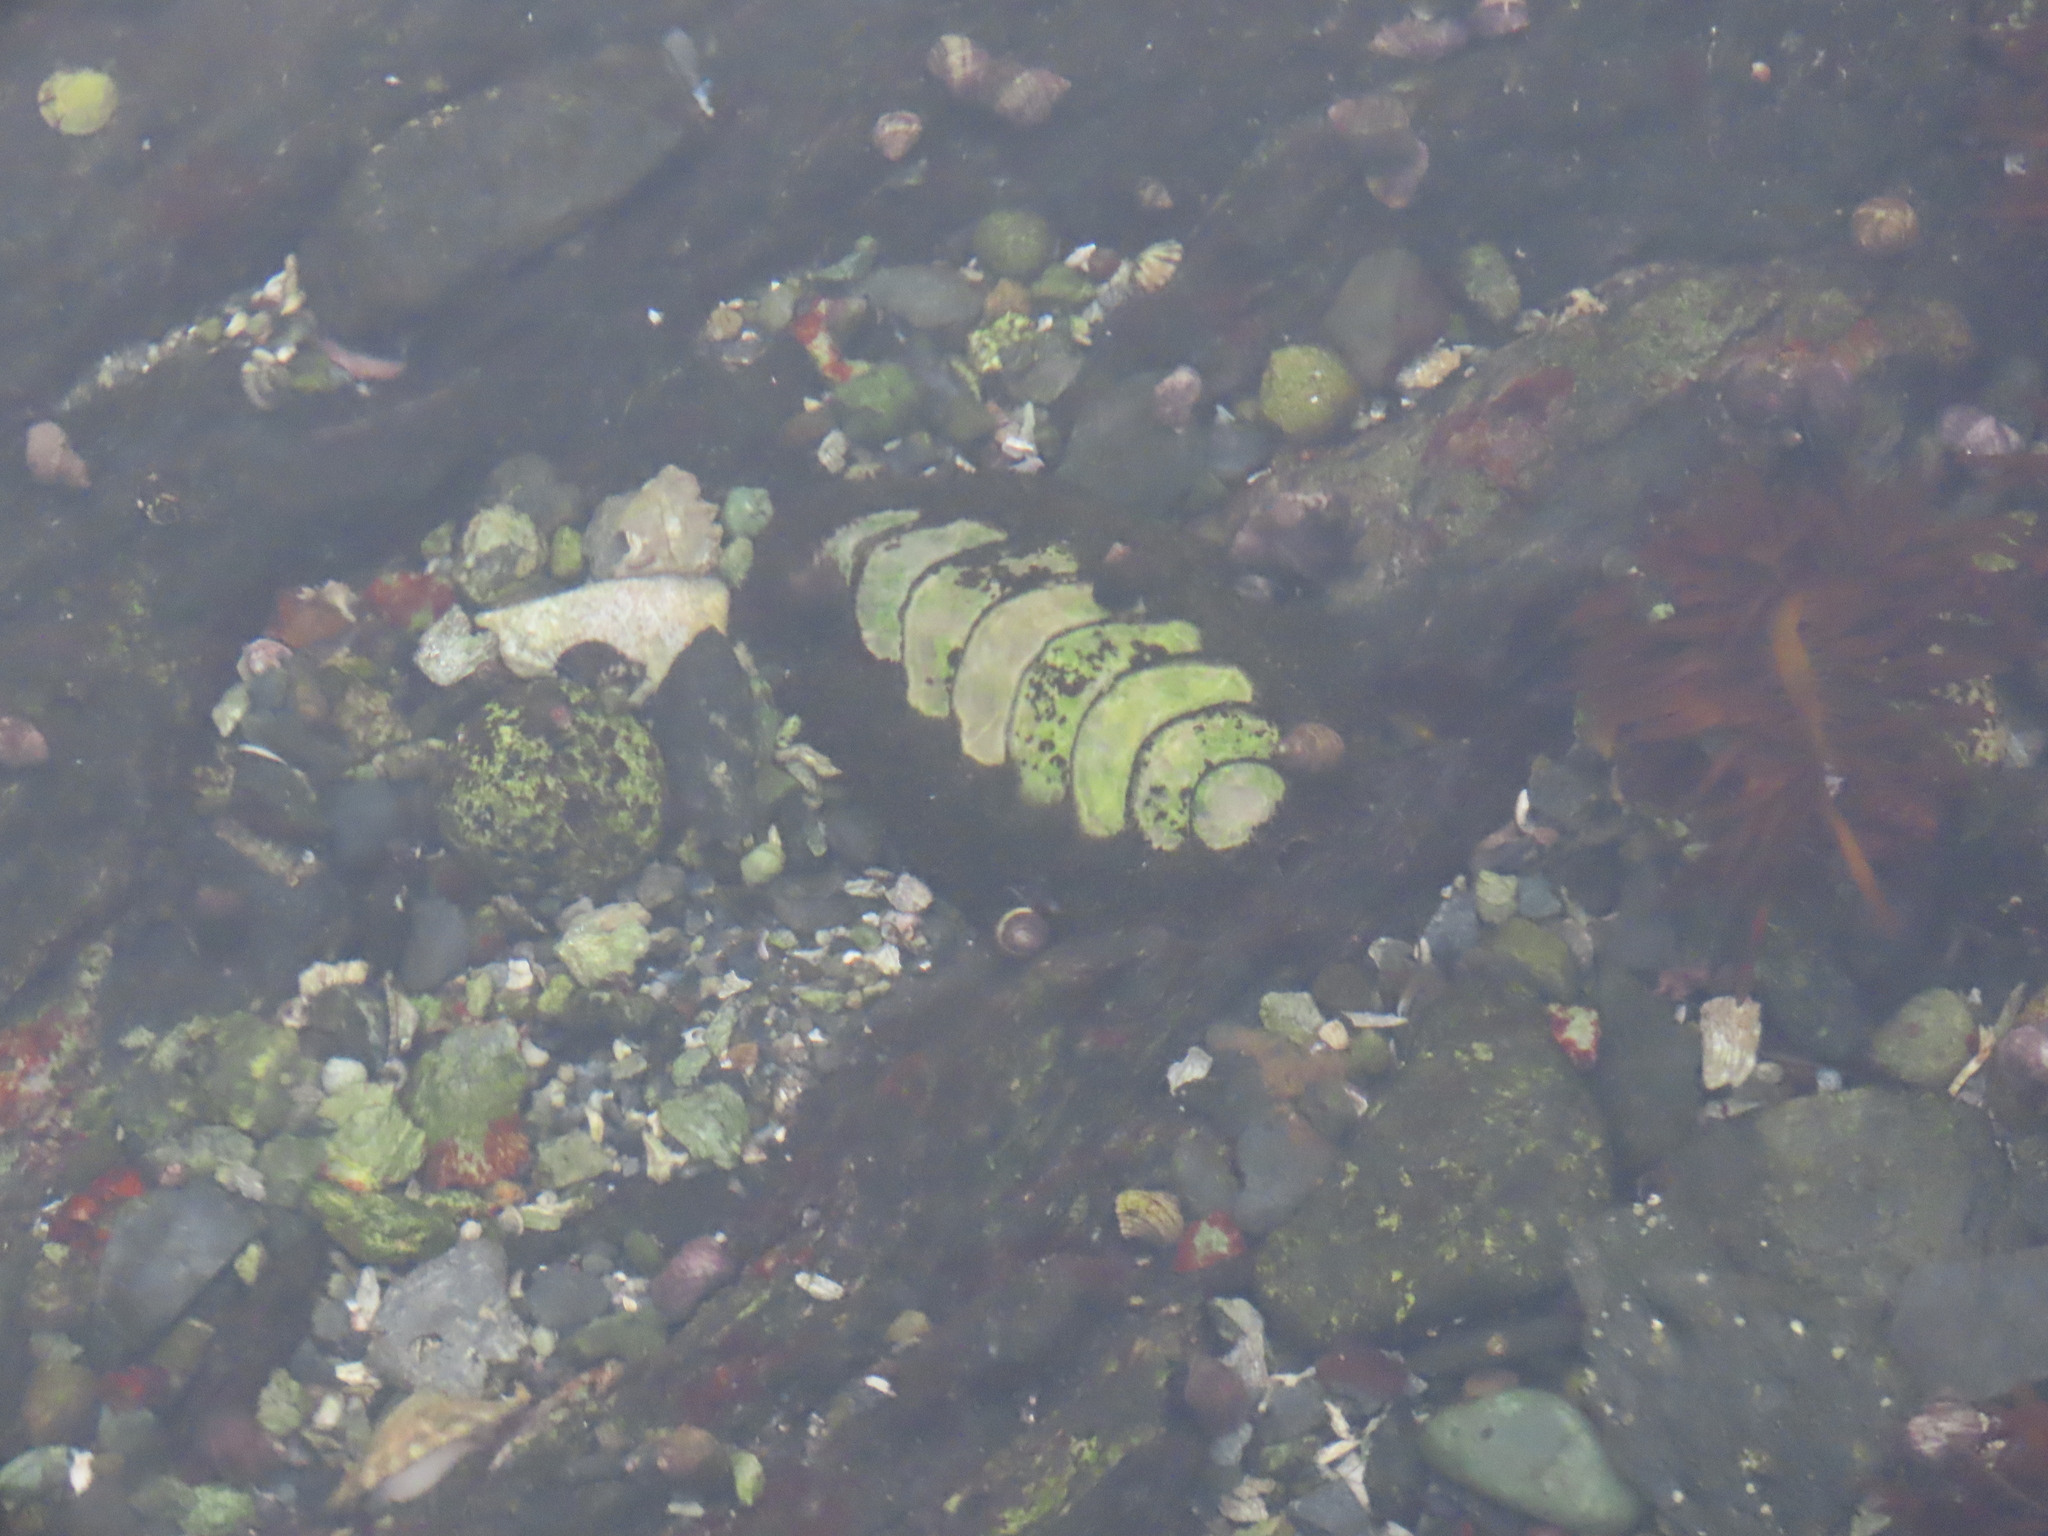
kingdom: Animalia
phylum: Mollusca
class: Polyplacophora
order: Chitonida
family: Mopaliidae
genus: Mopalia
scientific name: Mopalia muscosa
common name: Mossy chiton
